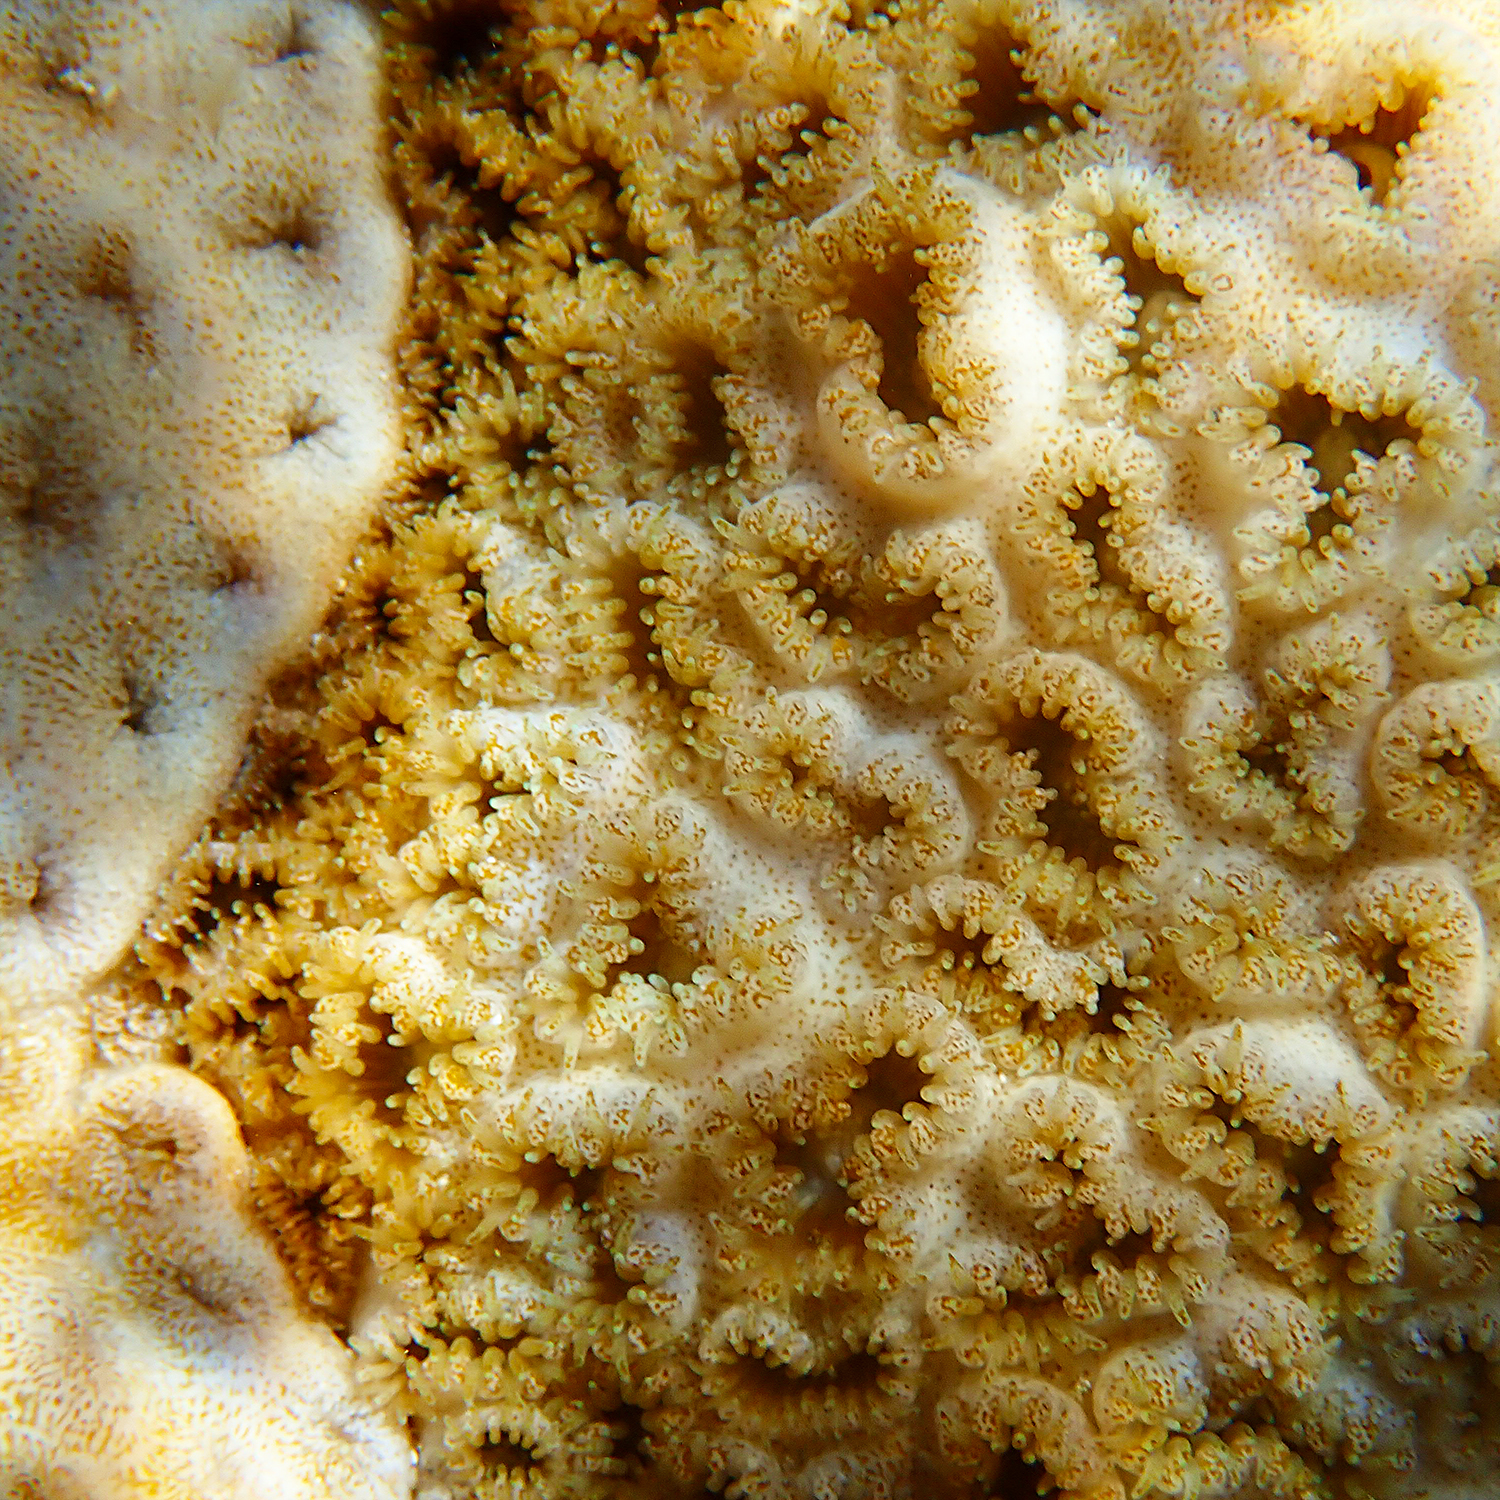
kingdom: Animalia
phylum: Cnidaria
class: Anthozoa
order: Zoantharia
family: Sphenopidae
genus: Palythoa
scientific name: Palythoa tuberculosa
